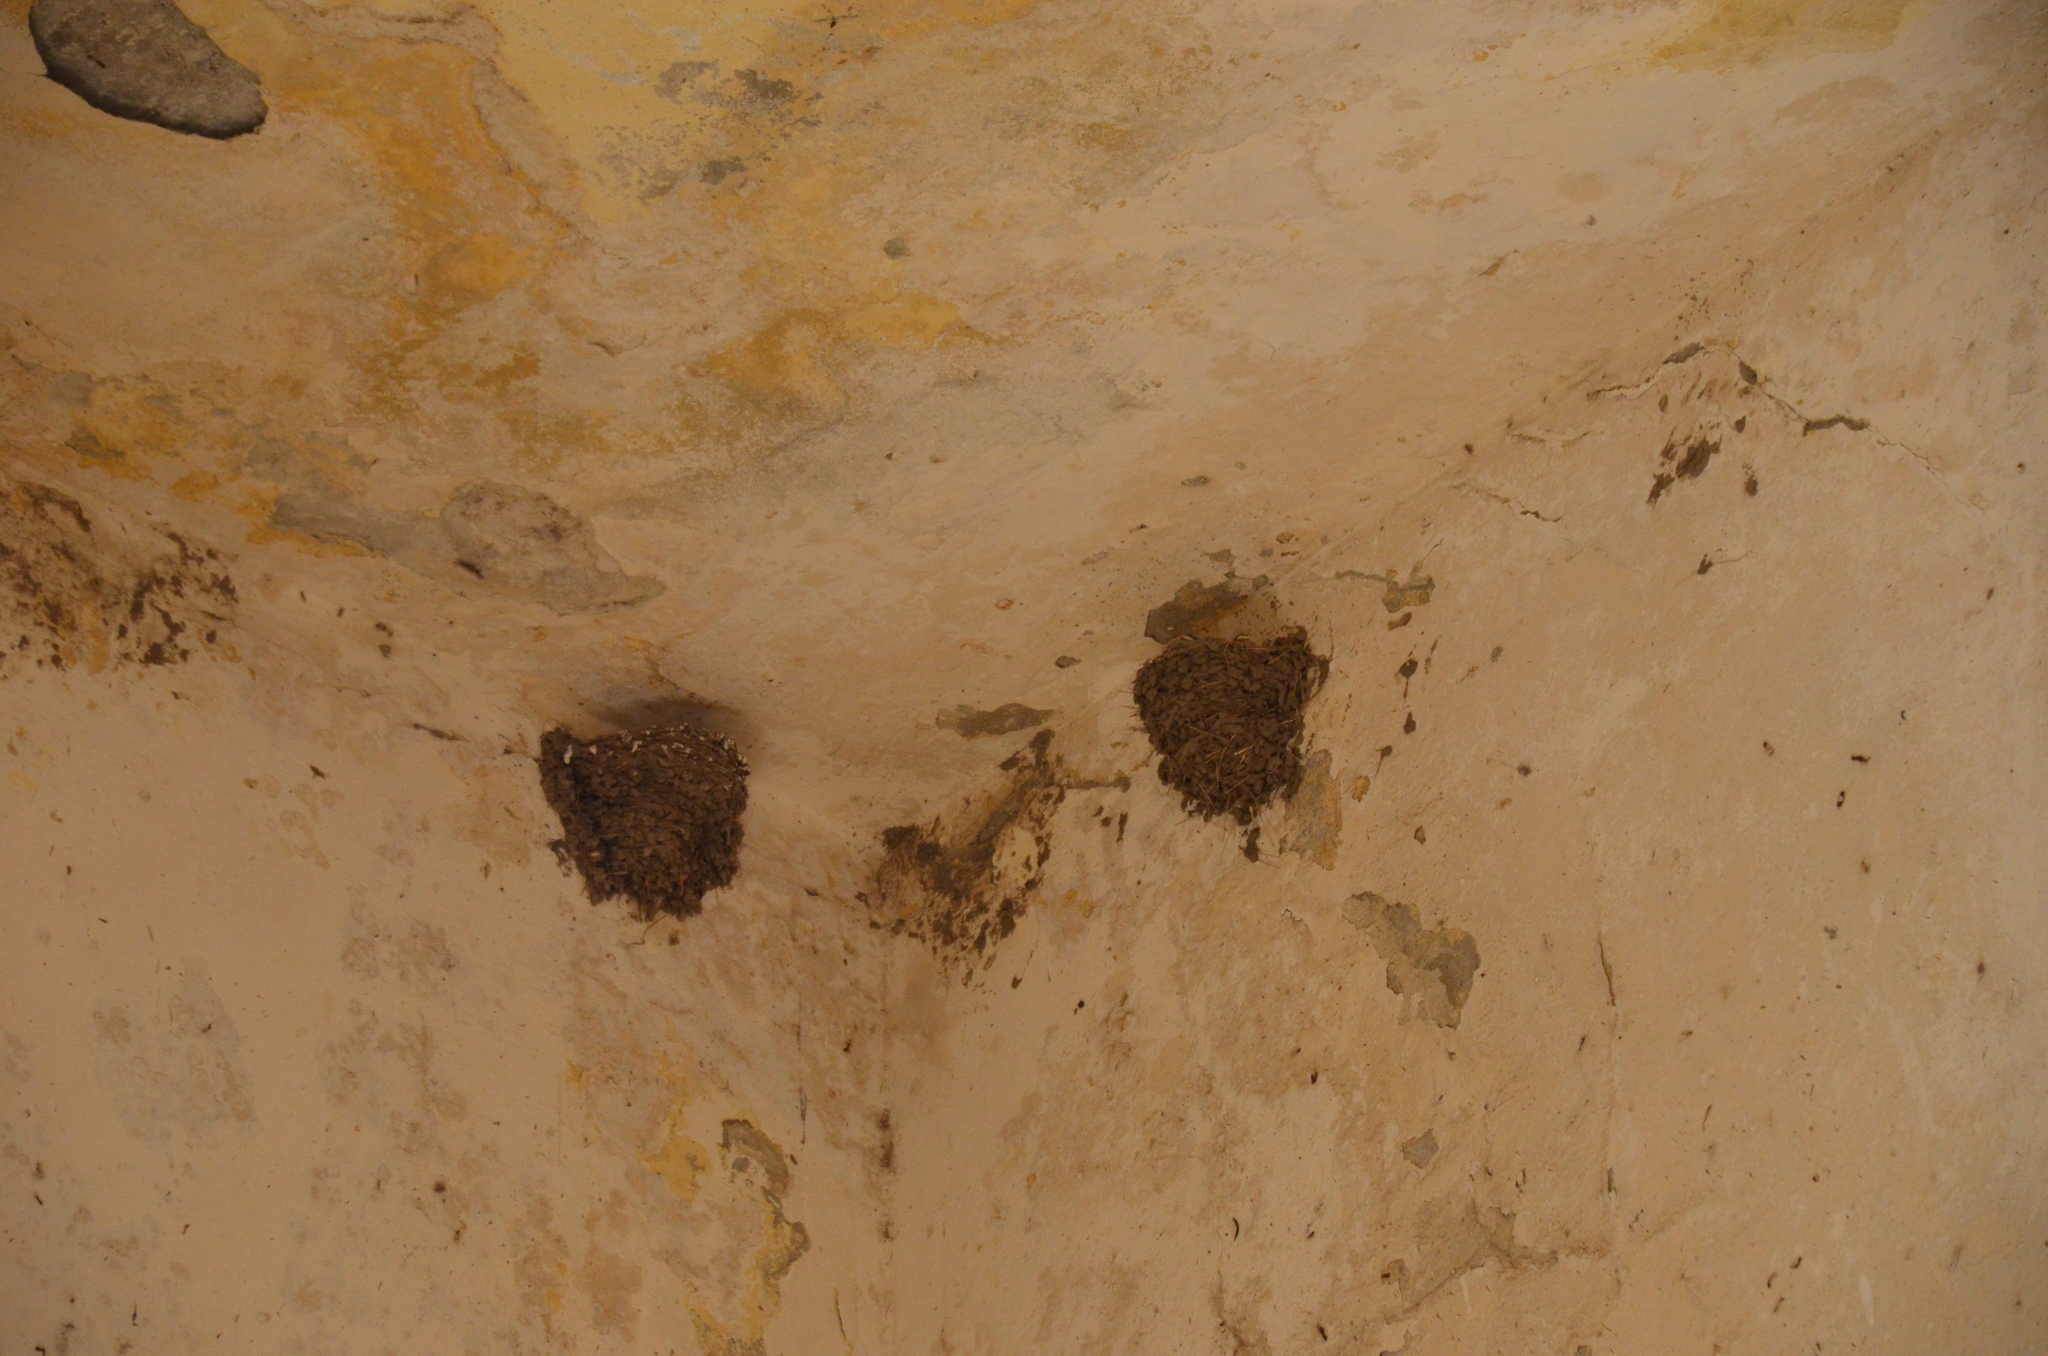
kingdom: Animalia
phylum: Chordata
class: Aves
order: Passeriformes
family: Hirundinidae
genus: Hirundo
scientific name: Hirundo rustica
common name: Barn swallow
